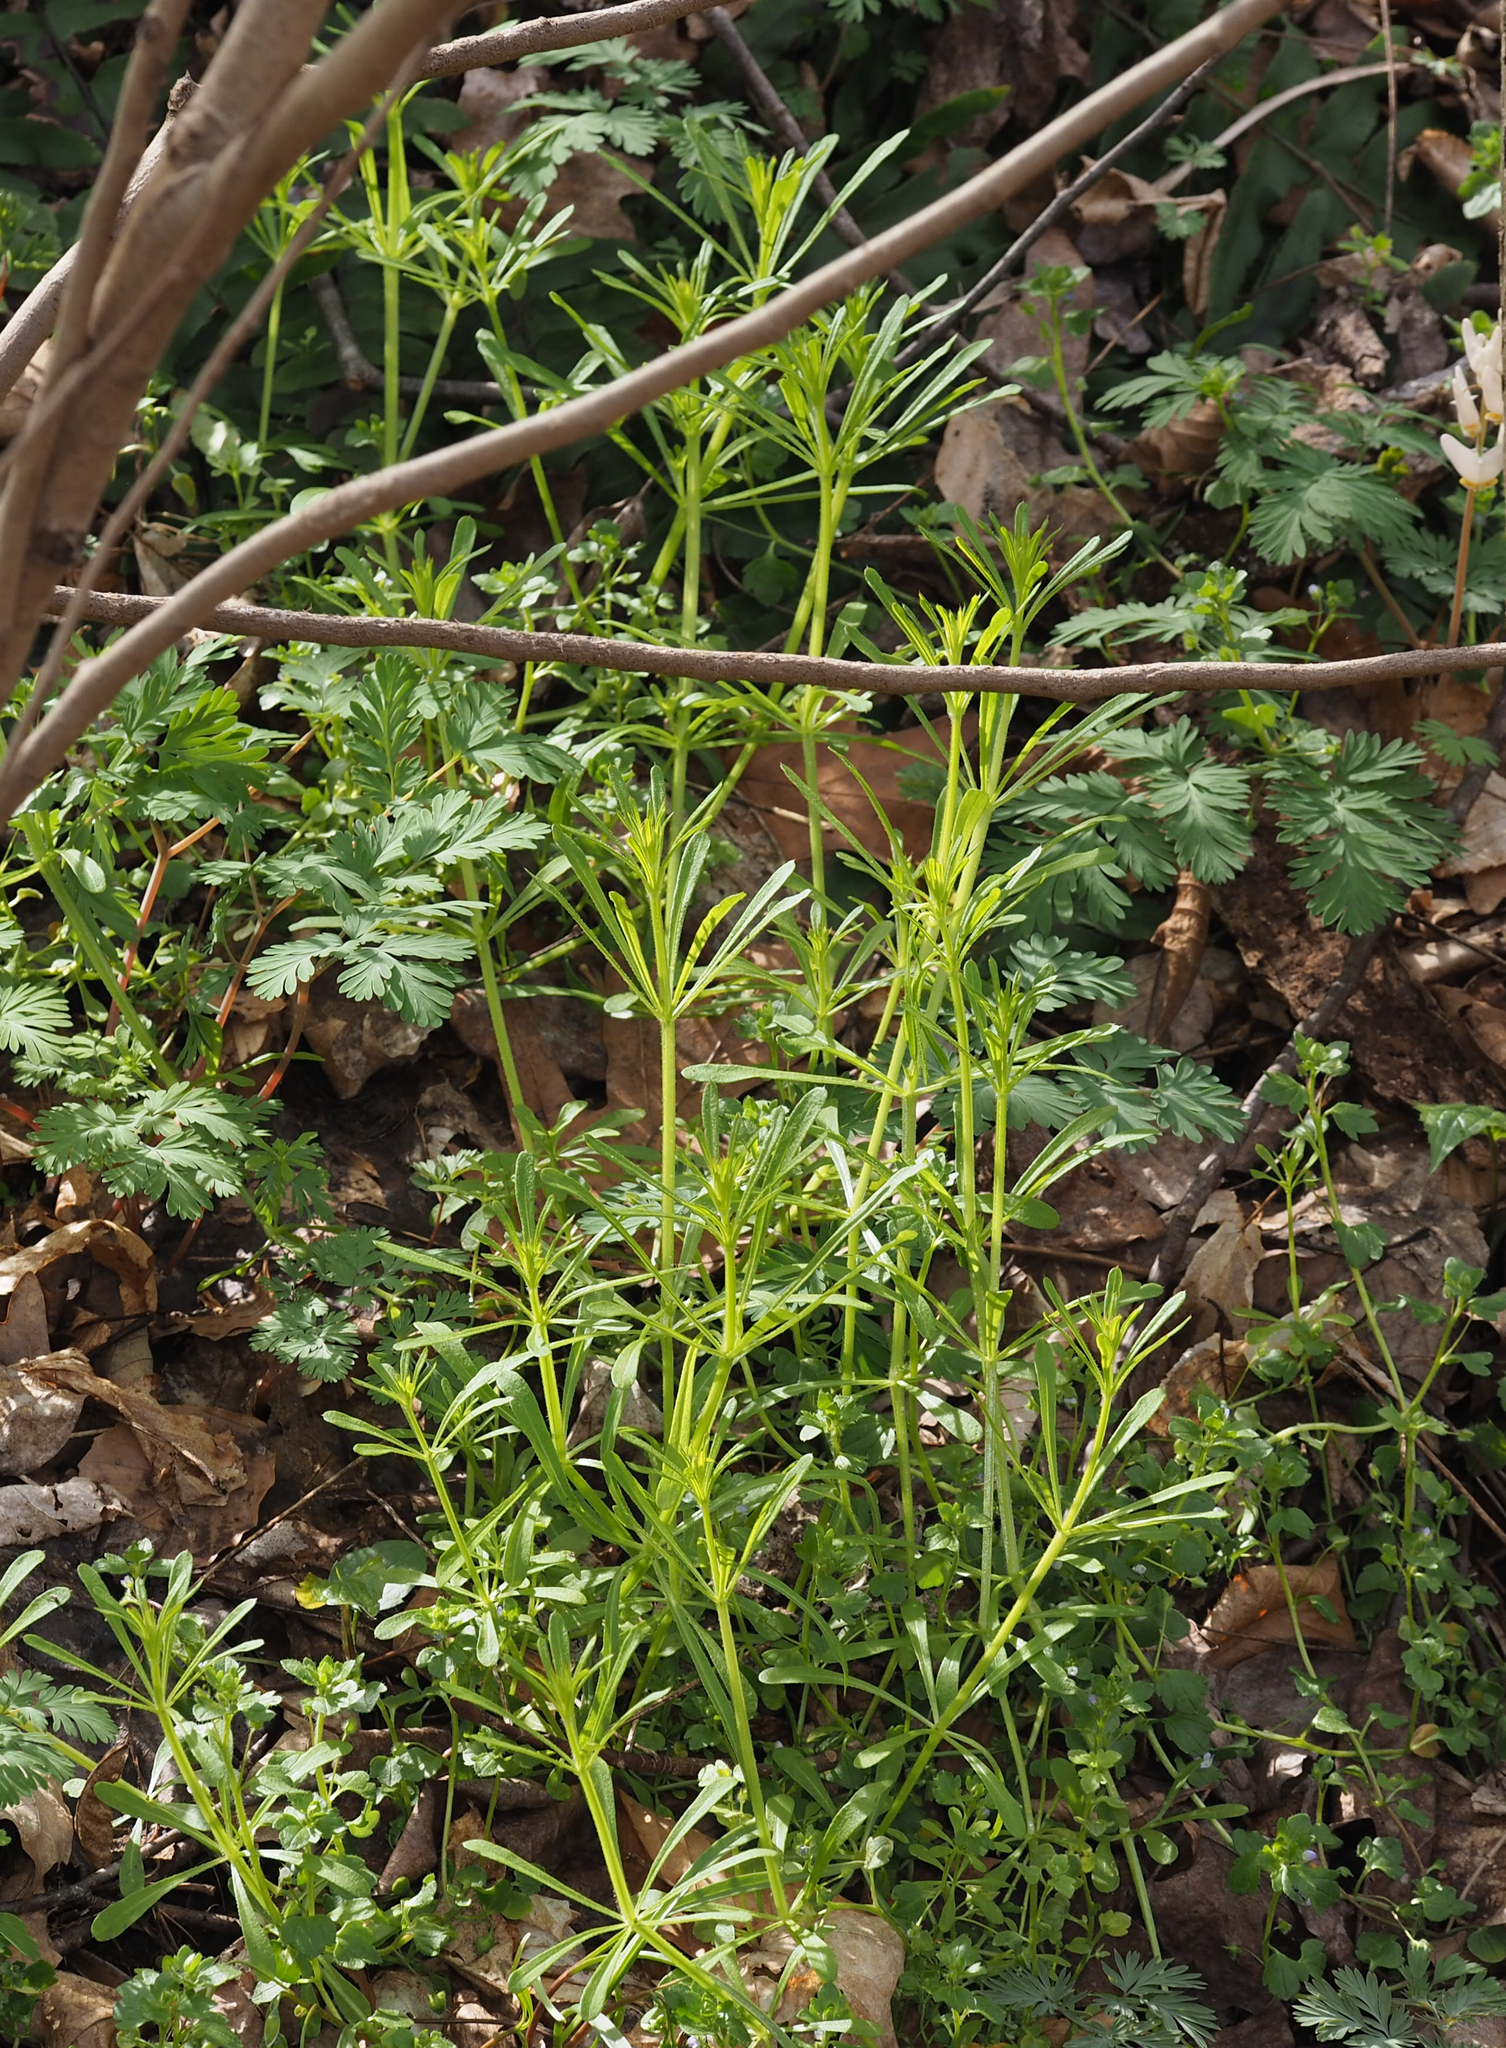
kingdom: Plantae
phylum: Tracheophyta
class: Magnoliopsida
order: Gentianales
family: Rubiaceae
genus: Galium
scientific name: Galium aparine
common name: Cleavers
